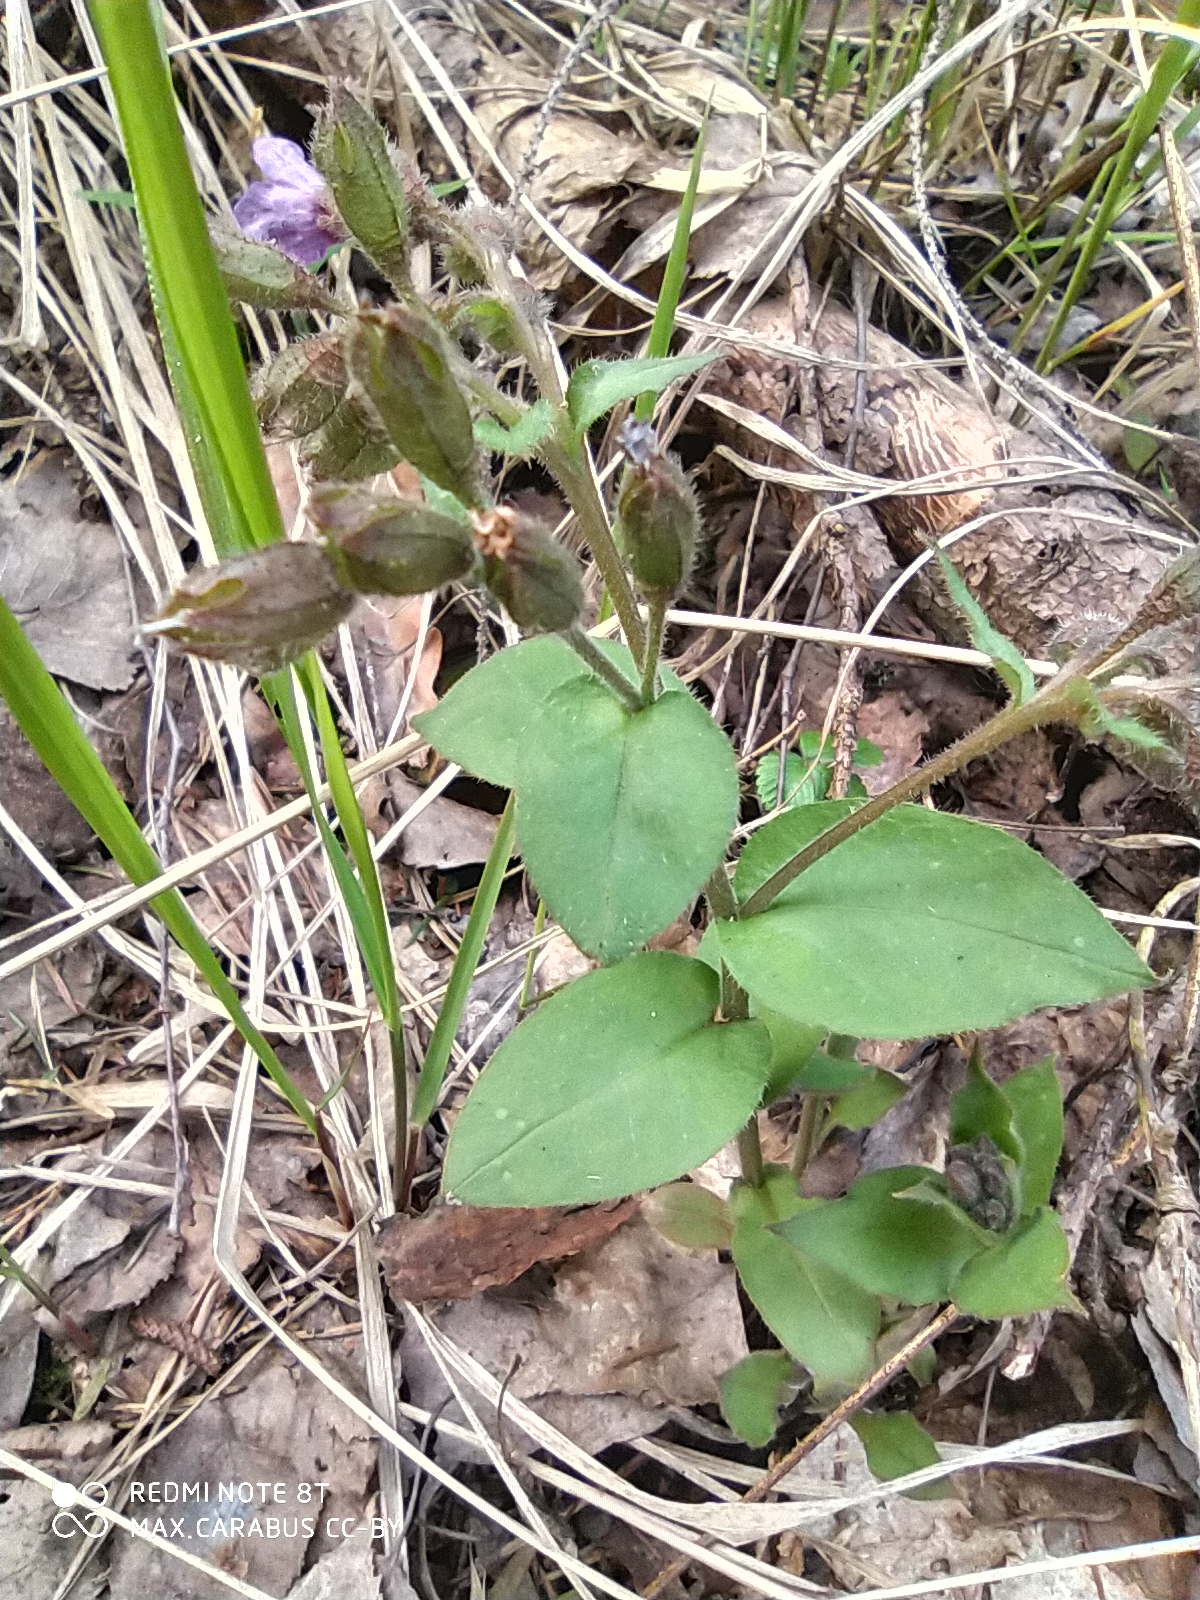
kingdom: Plantae
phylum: Tracheophyta
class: Magnoliopsida
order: Boraginales
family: Boraginaceae
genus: Pulmonaria
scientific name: Pulmonaria obscura
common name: Suffolk lungwort
